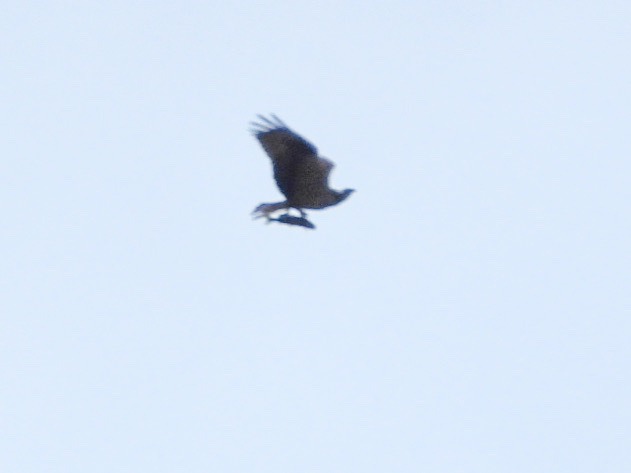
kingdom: Animalia
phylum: Chordata
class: Aves
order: Accipitriformes
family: Pandionidae
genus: Pandion
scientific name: Pandion haliaetus
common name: Osprey
